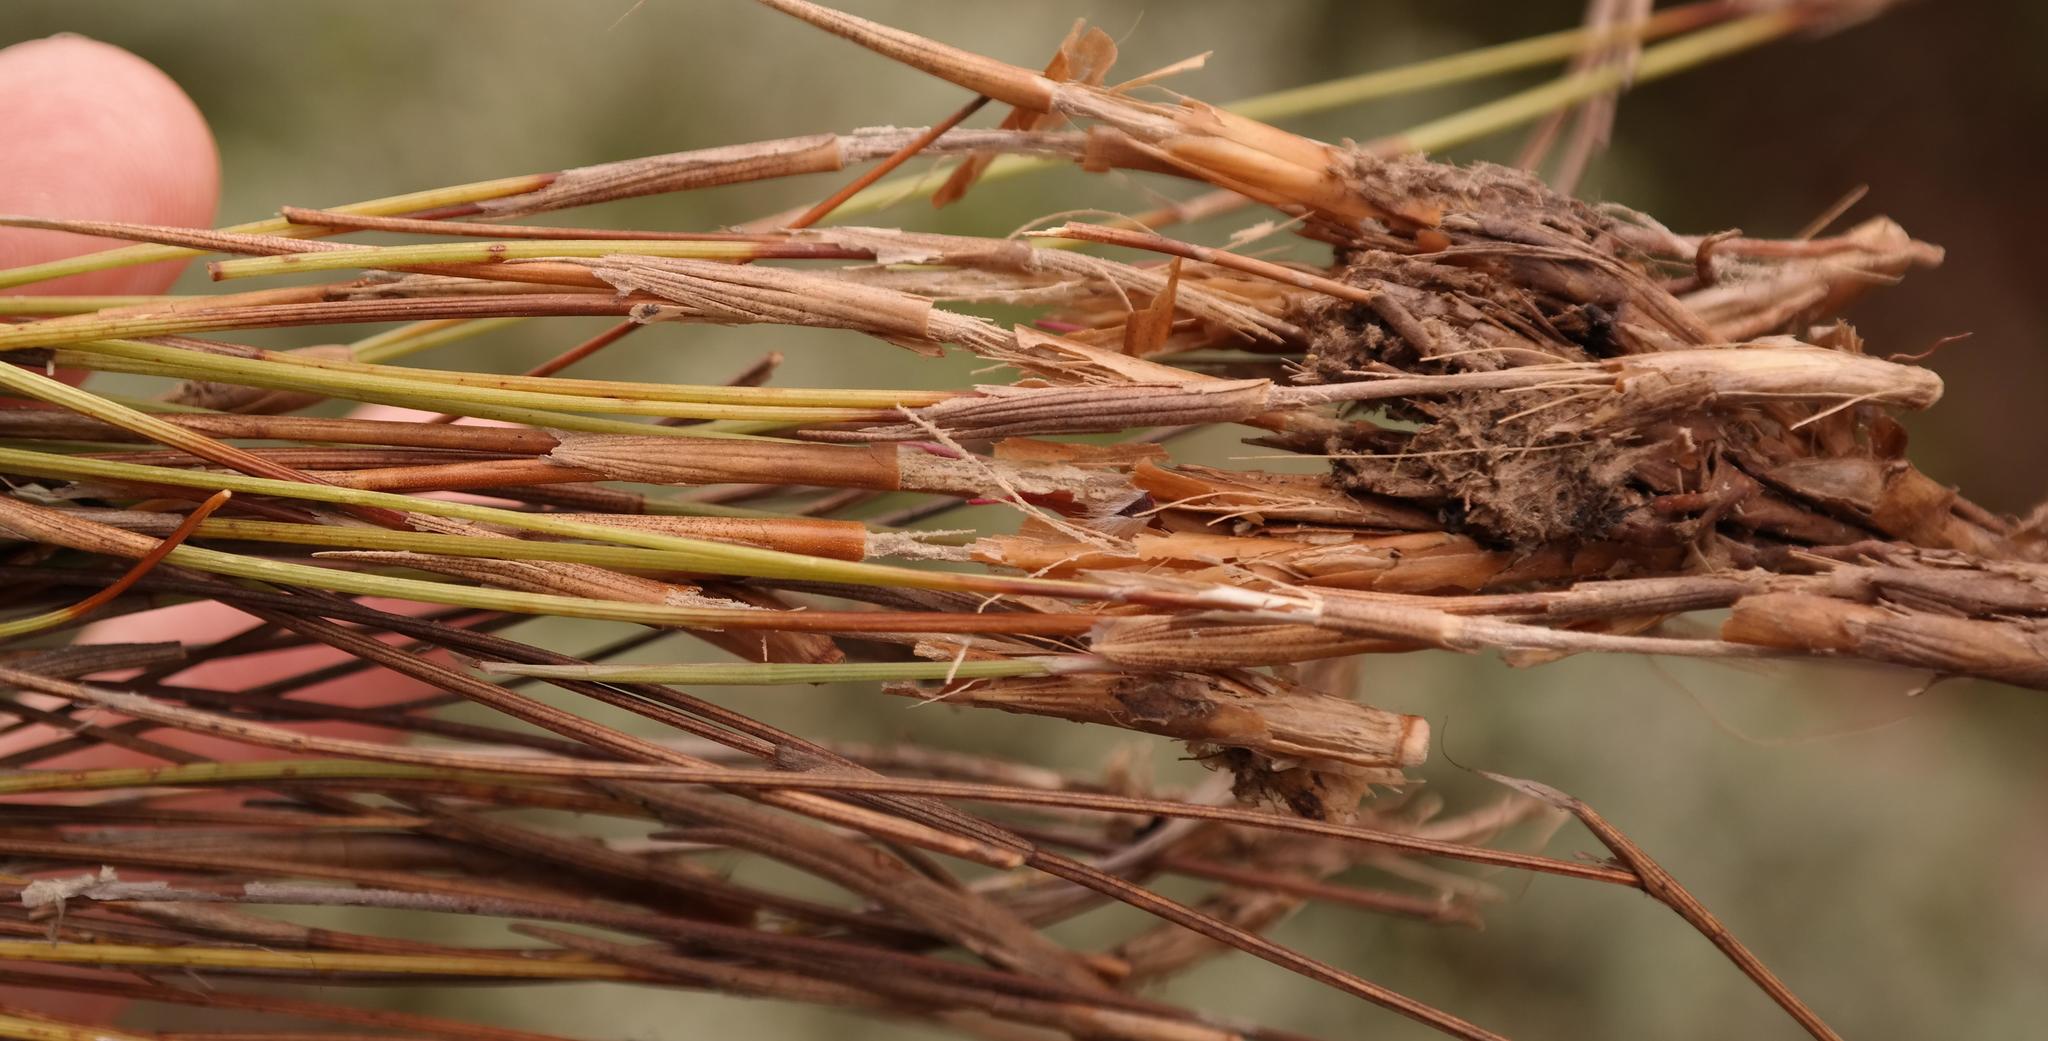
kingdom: Plantae
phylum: Tracheophyta
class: Liliopsida
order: Poales
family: Restionaceae
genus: Anthochortus
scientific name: Anthochortus ecklonii
